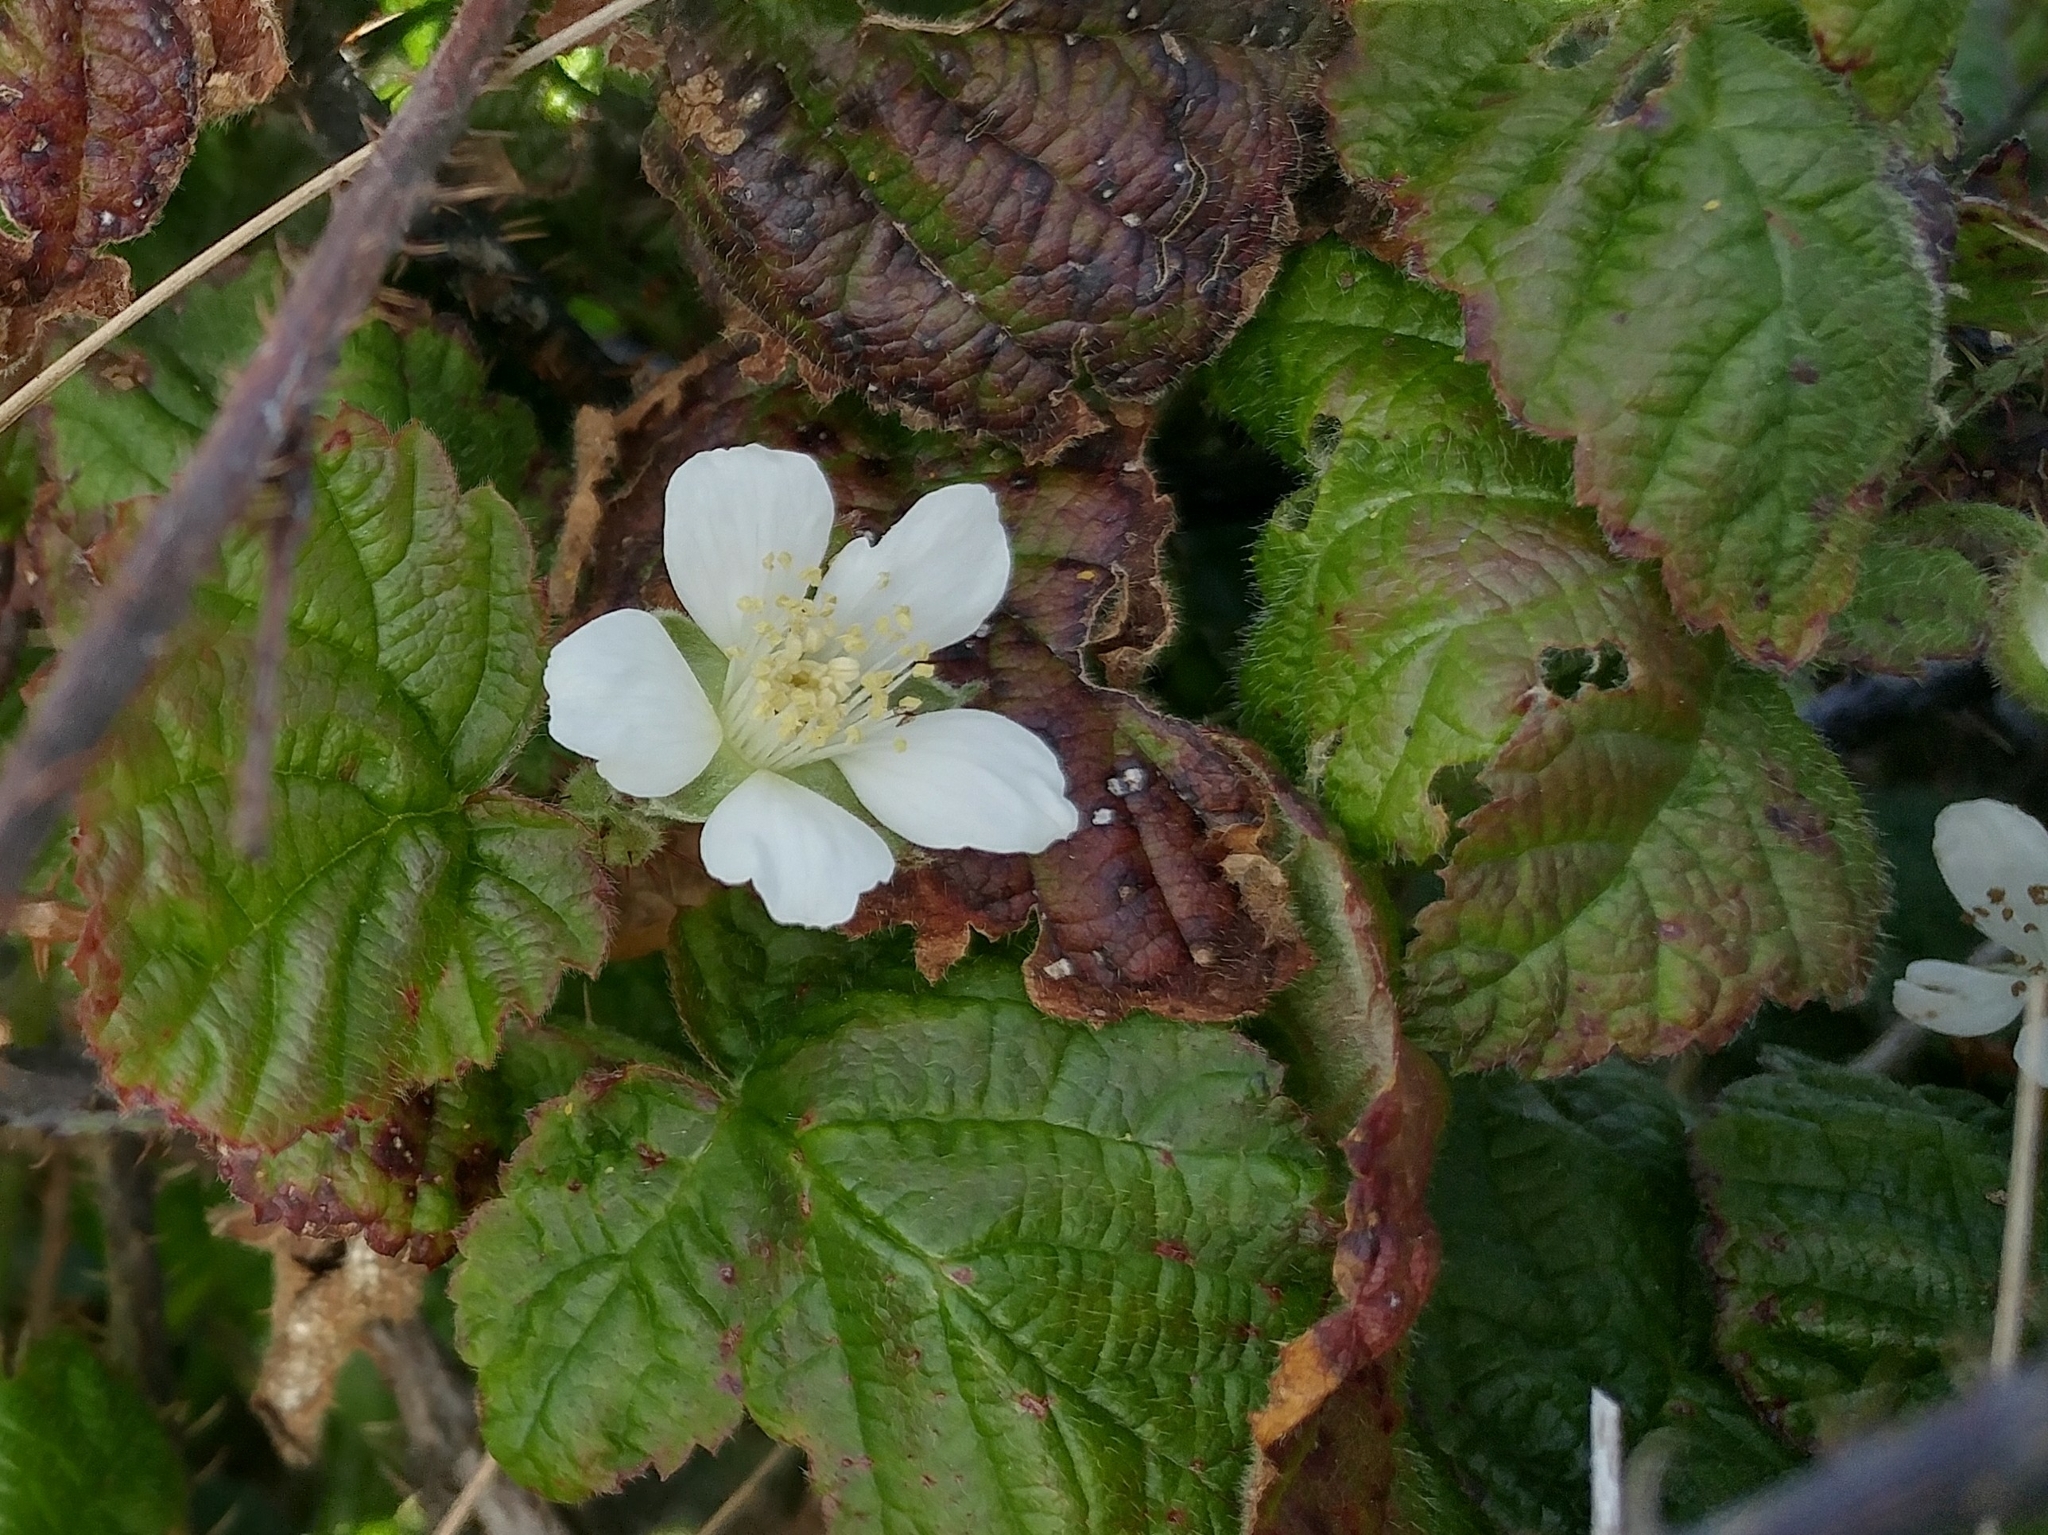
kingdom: Plantae
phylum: Tracheophyta
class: Magnoliopsida
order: Rosales
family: Rosaceae
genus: Rubus
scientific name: Rubus ursinus
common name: Pacific blackberry
